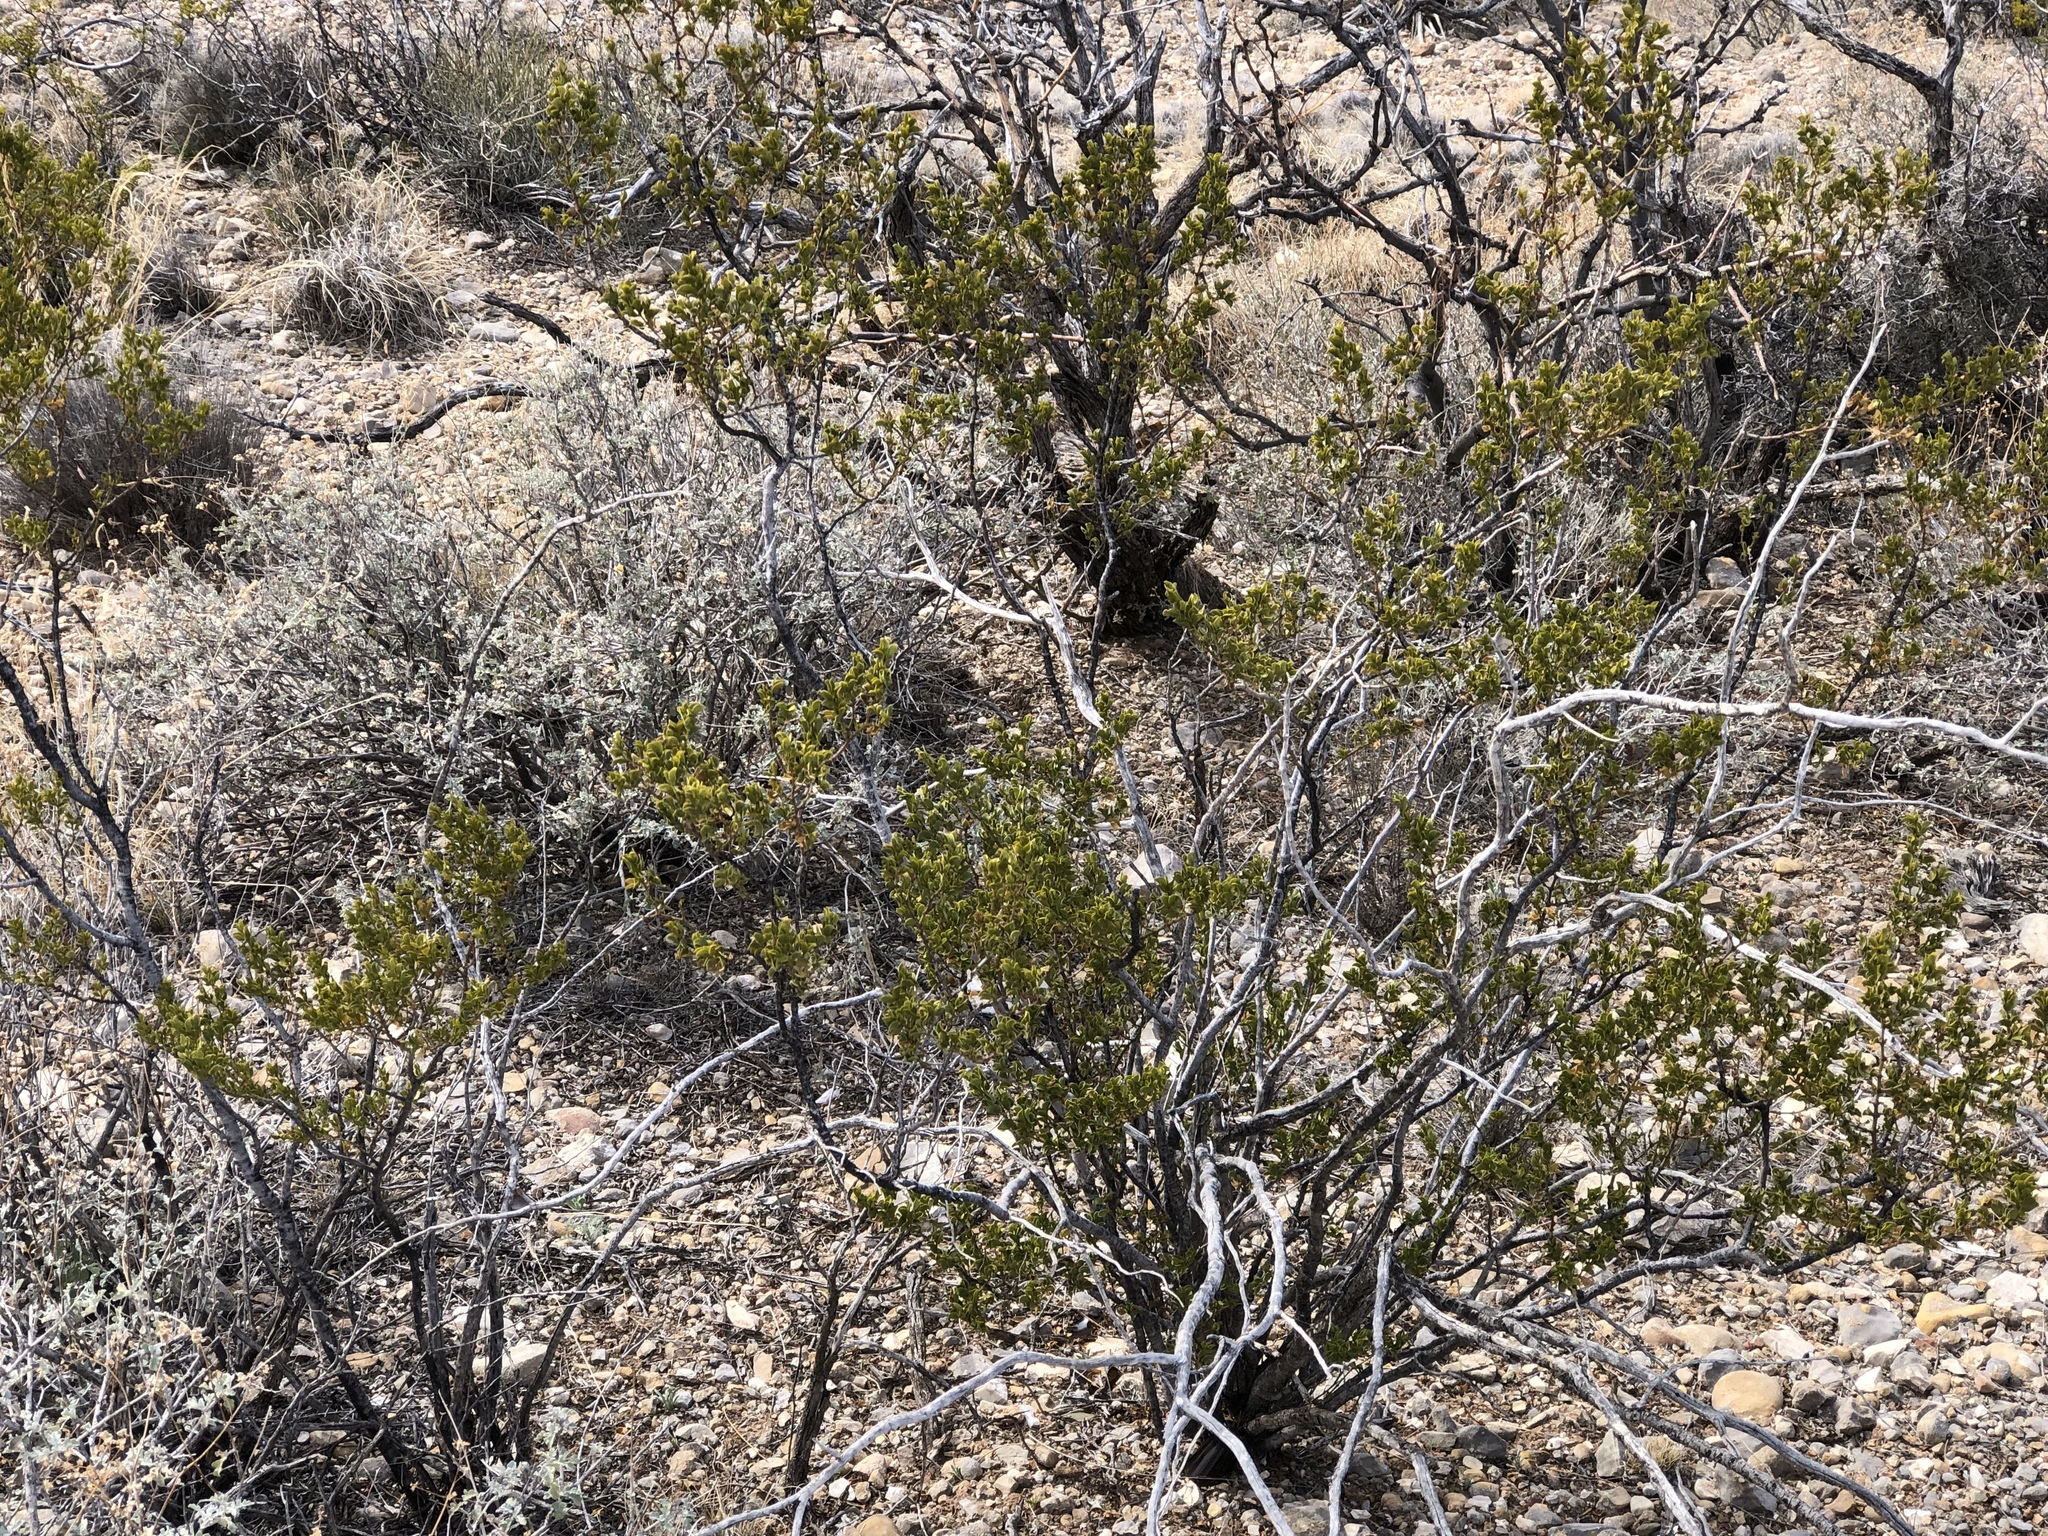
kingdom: Plantae
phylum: Tracheophyta
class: Magnoliopsida
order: Zygophyllales
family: Zygophyllaceae
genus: Larrea
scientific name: Larrea tridentata
